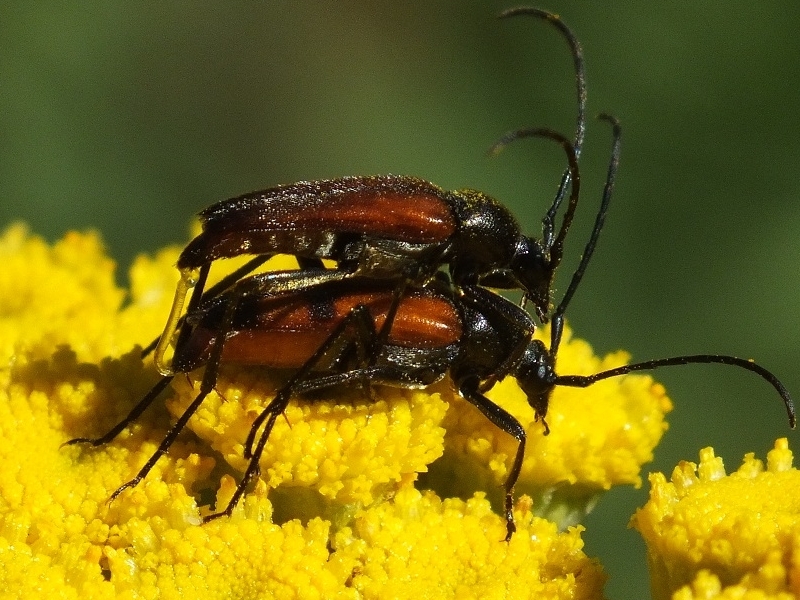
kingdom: Animalia
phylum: Arthropoda
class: Insecta
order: Coleoptera
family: Cerambycidae
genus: Stenurella
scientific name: Stenurella bifasciata
